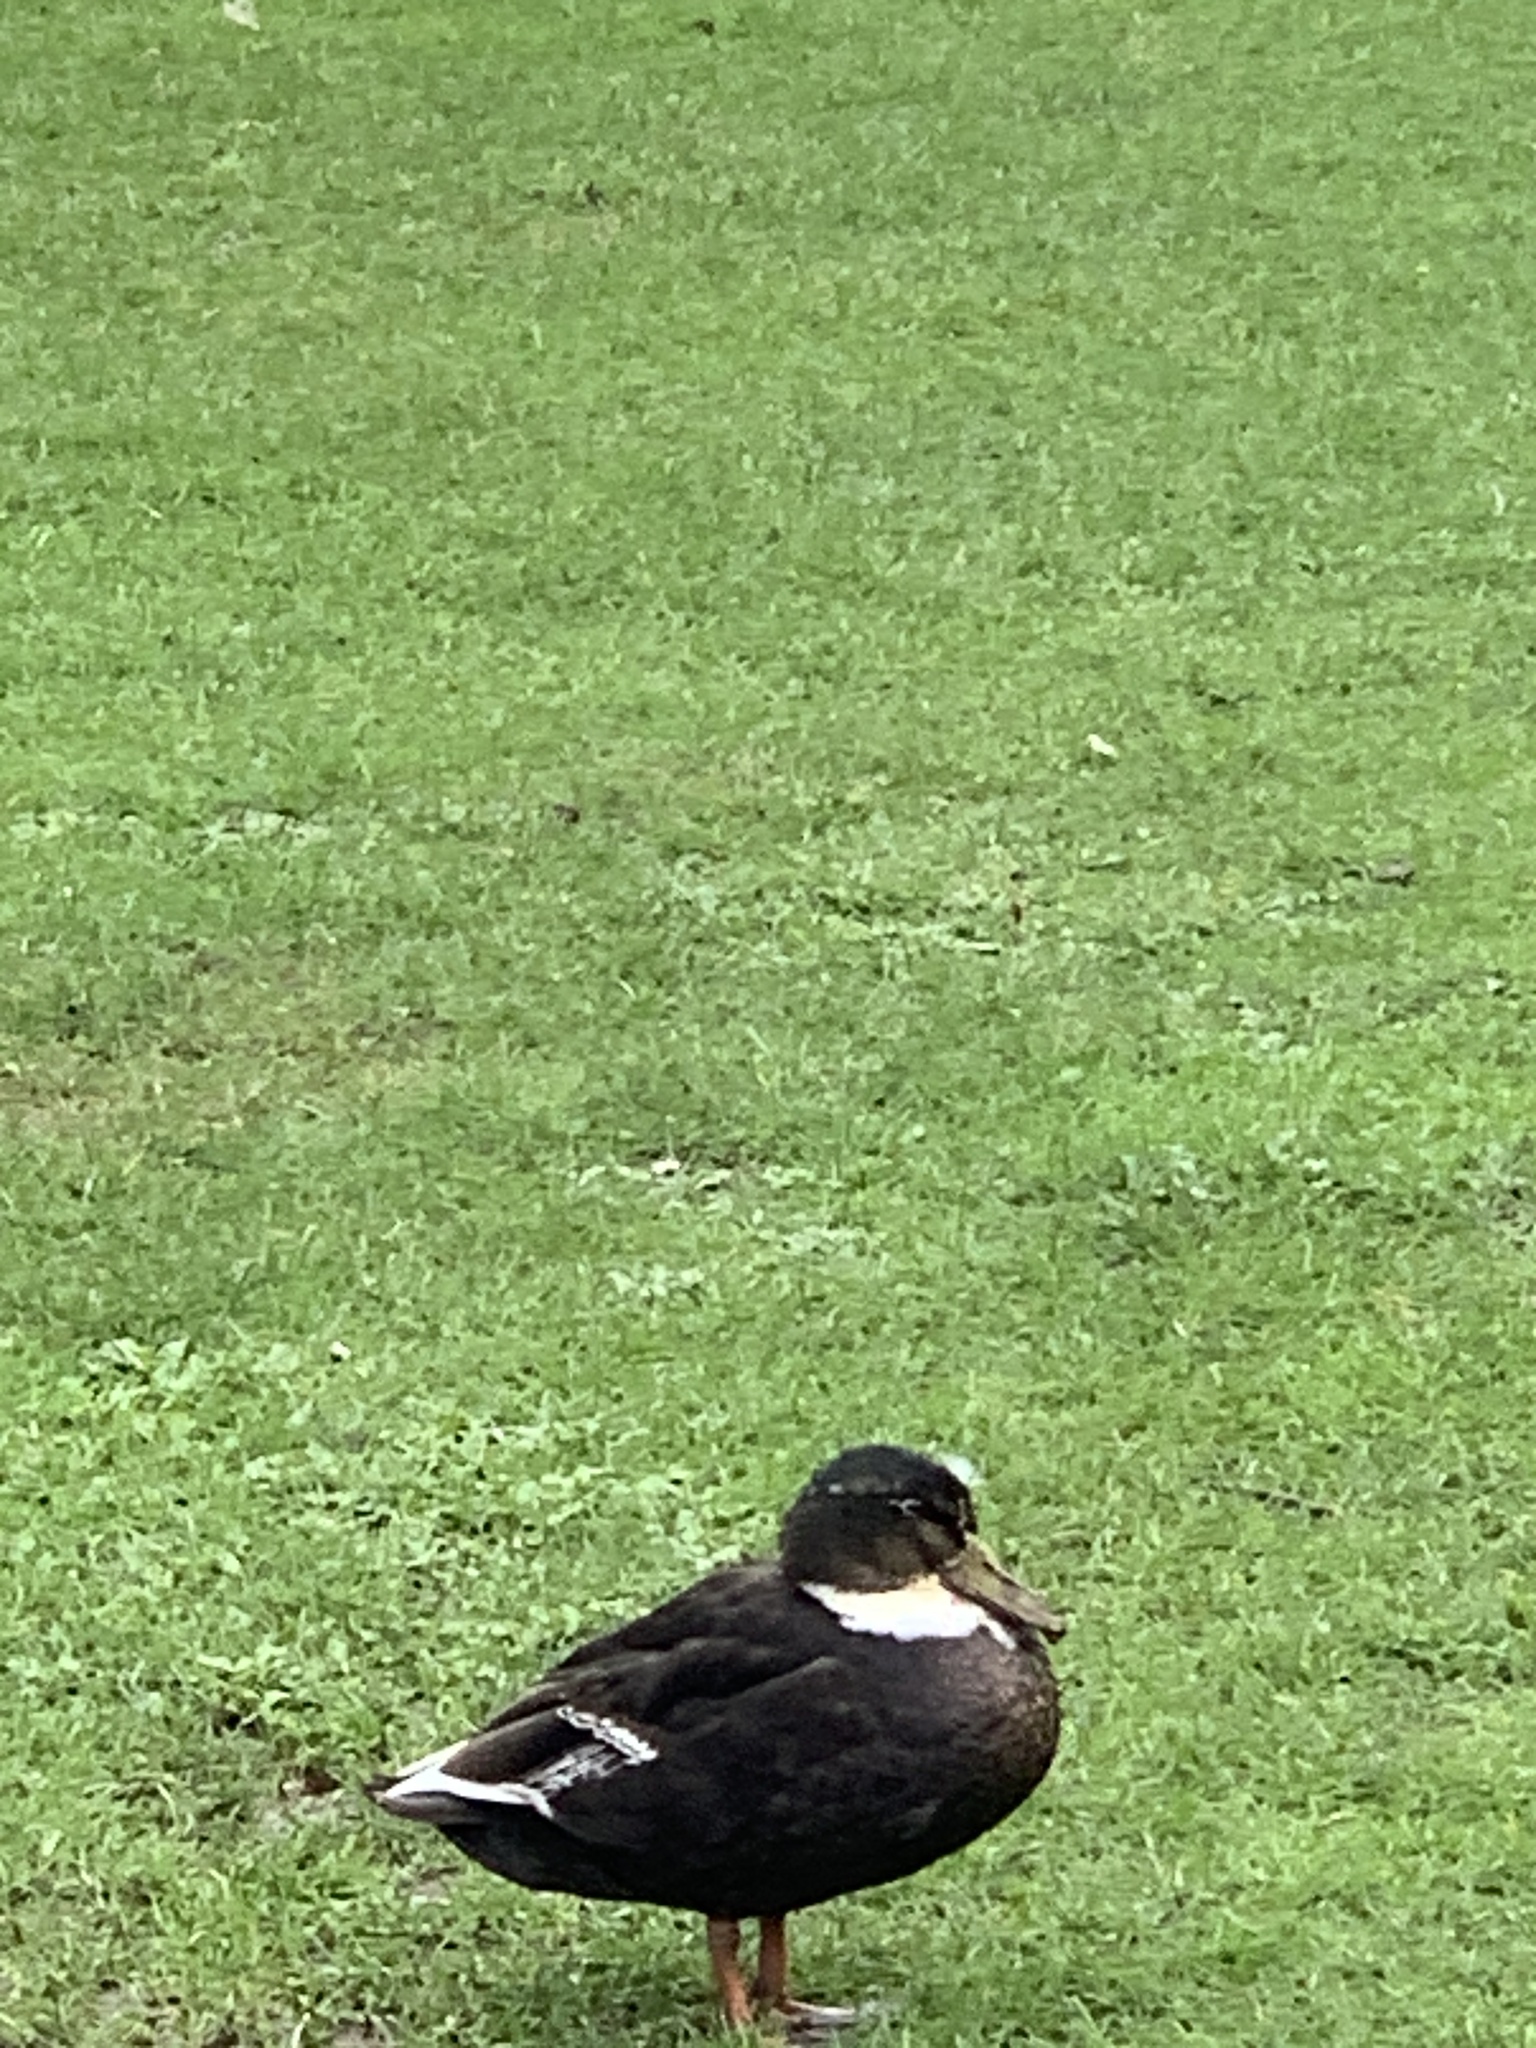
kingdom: Animalia
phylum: Chordata
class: Aves
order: Anseriformes
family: Anatidae
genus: Anas
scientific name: Anas platyrhynchos
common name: Mallard
